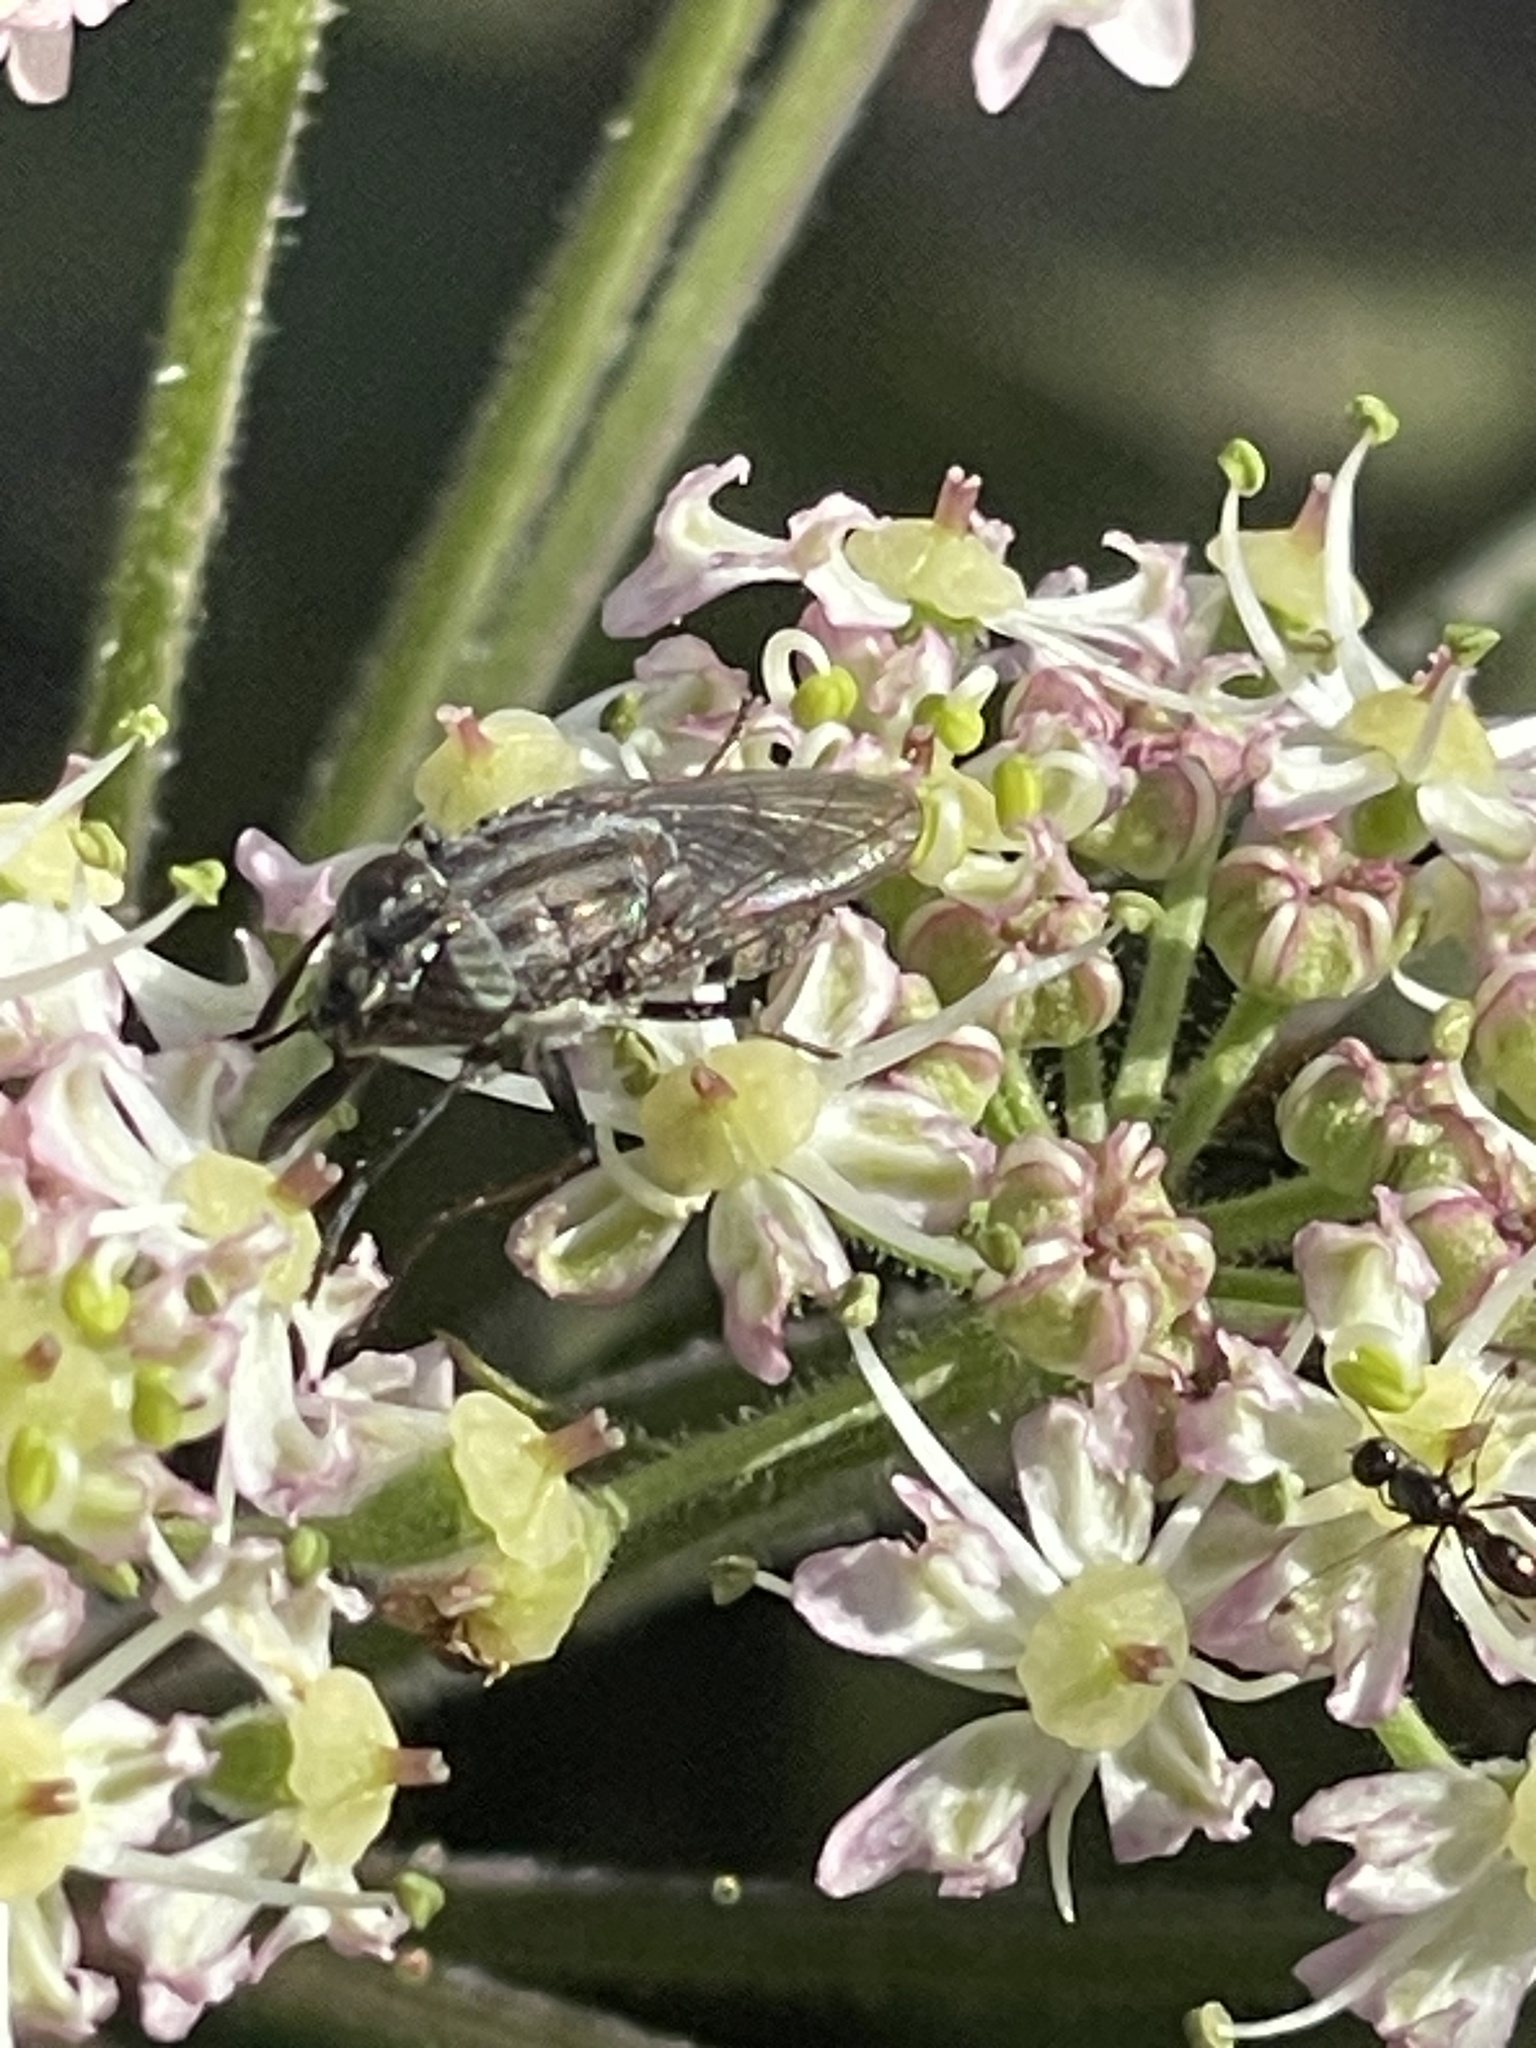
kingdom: Animalia
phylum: Arthropoda
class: Insecta
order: Diptera
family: Calliphoridae
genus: Stomorhina
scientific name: Stomorhina lunata
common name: Locust blowfly
